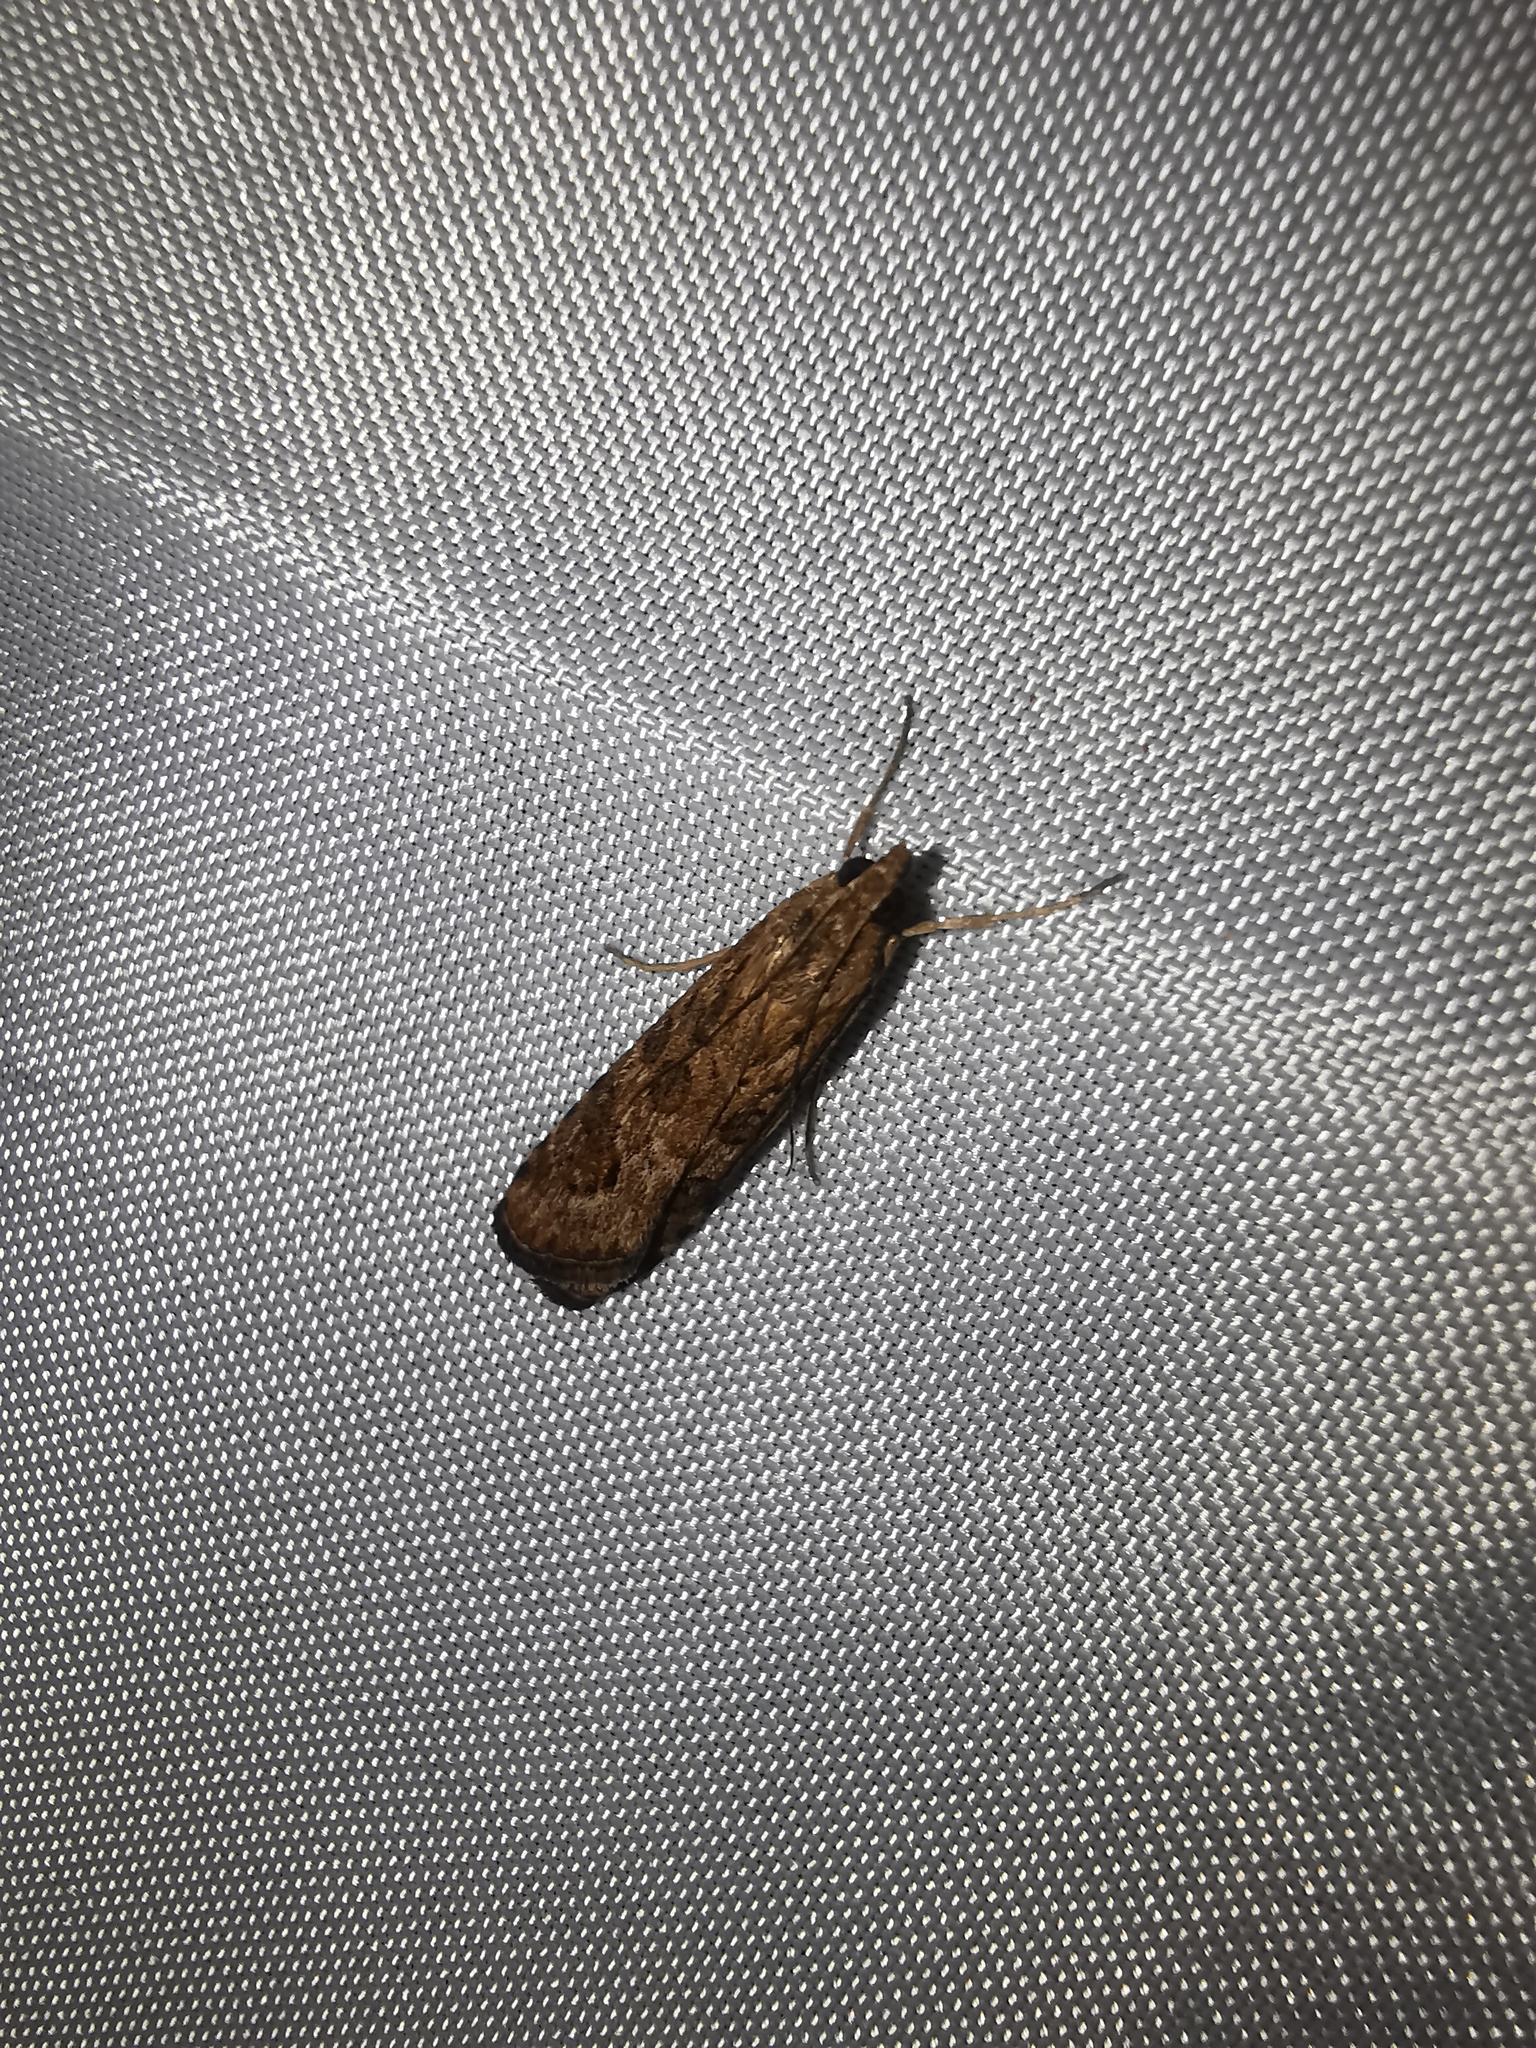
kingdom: Animalia
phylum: Arthropoda
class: Insecta
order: Lepidoptera
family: Crambidae
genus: Nomophila
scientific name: Nomophila noctuella
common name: Rush veneer
